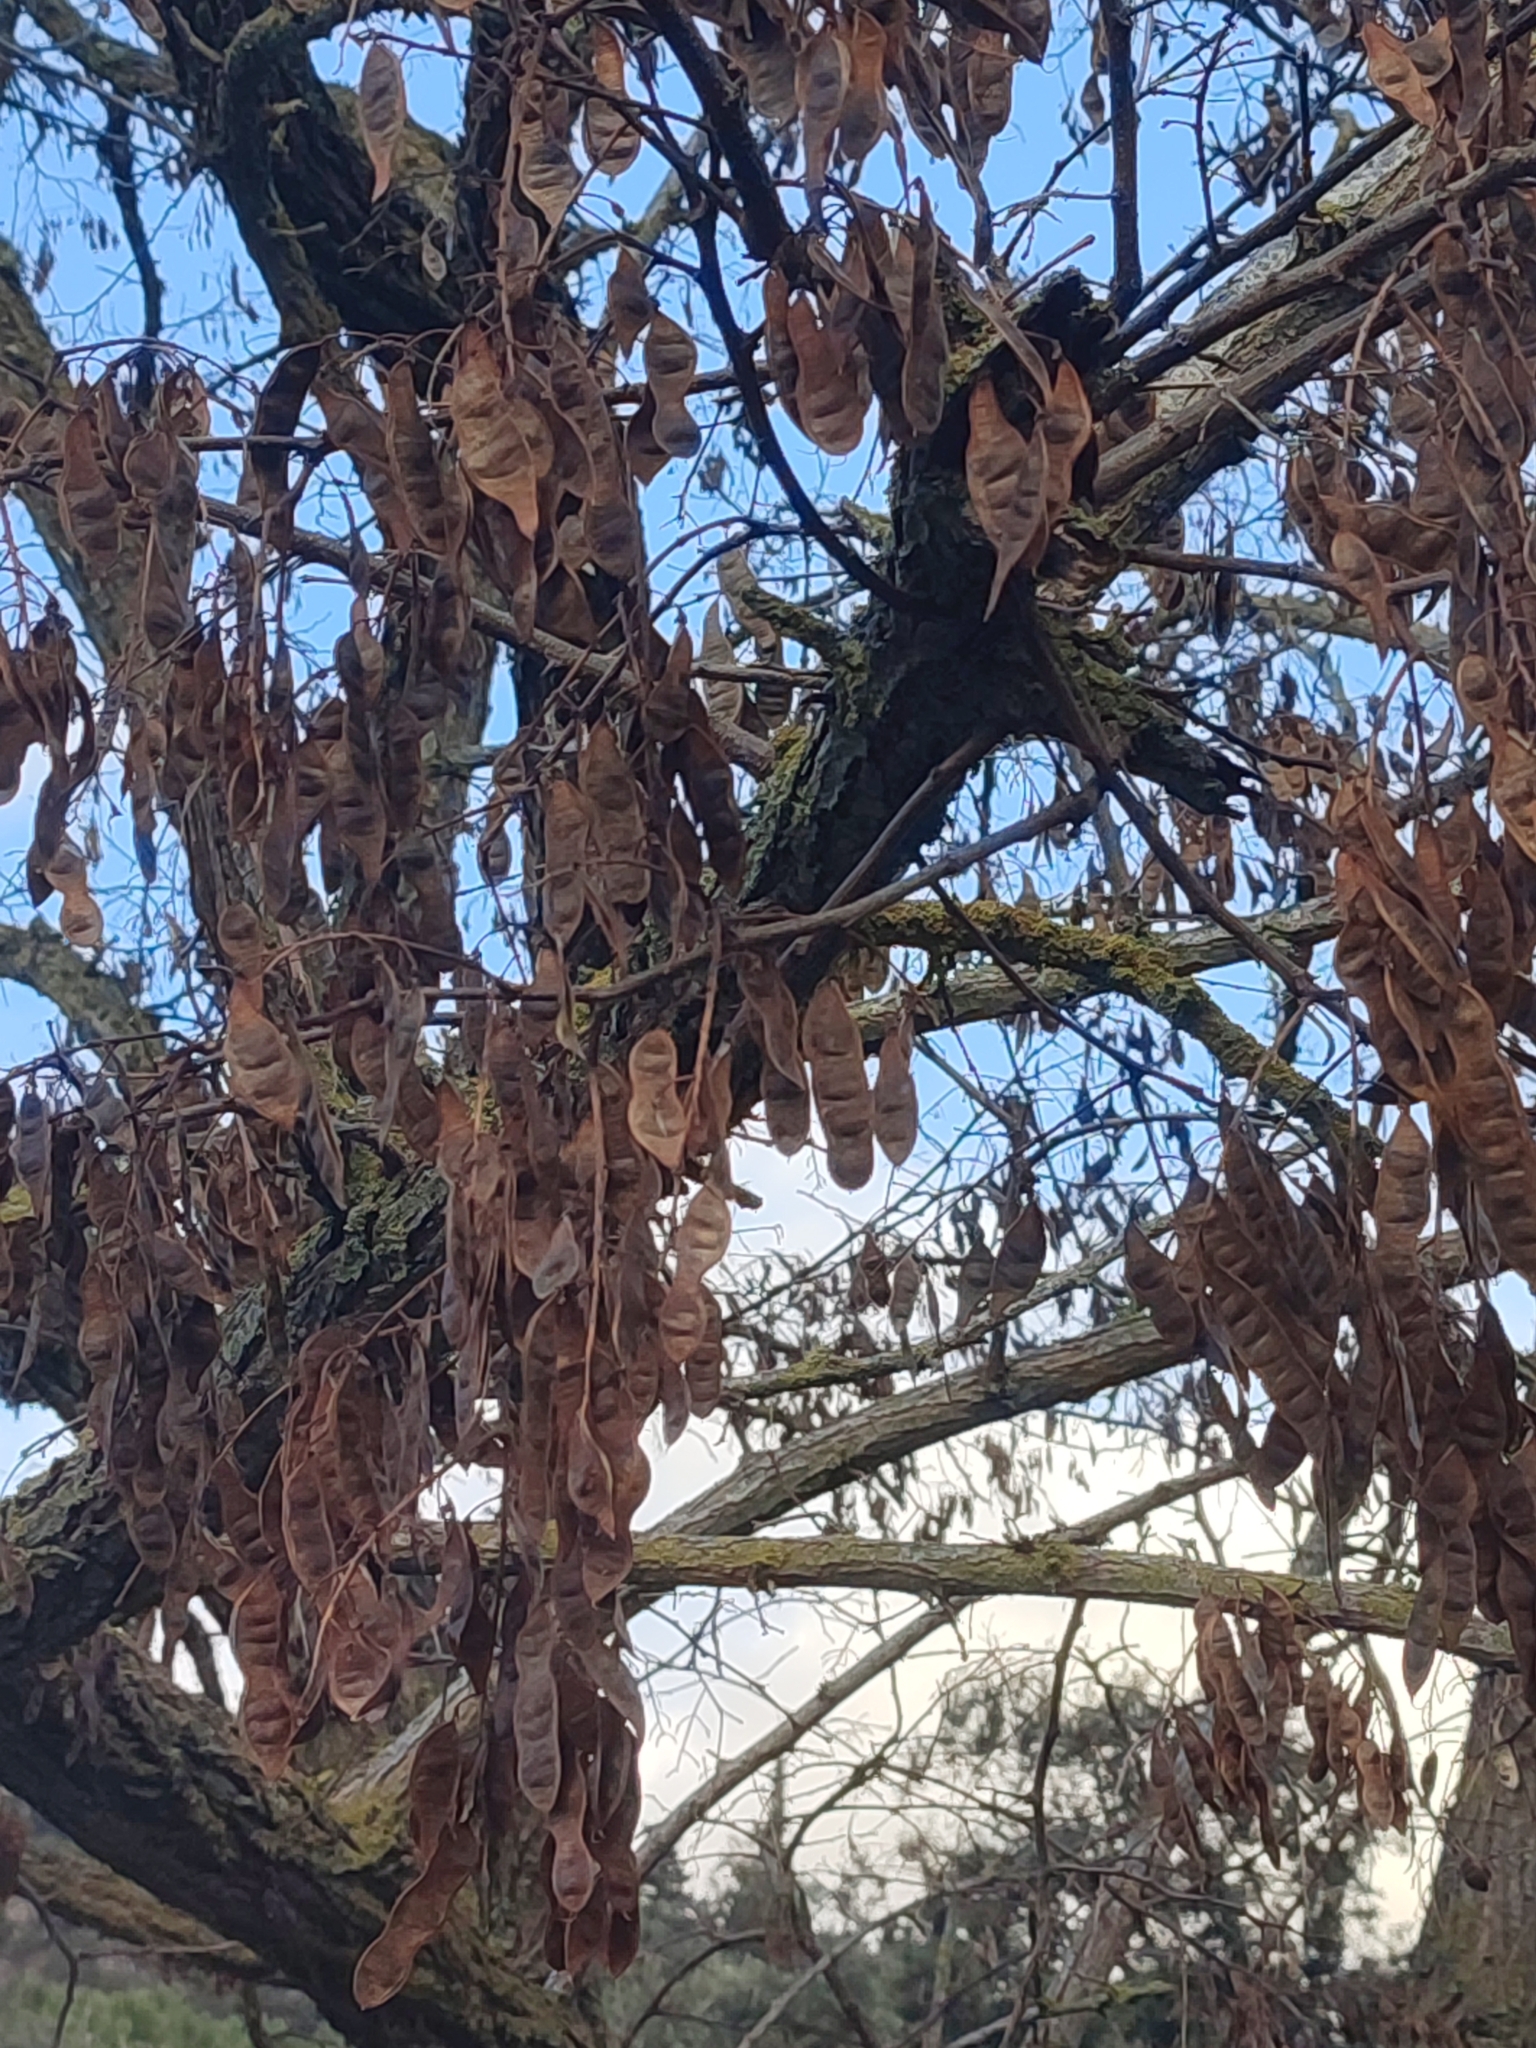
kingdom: Plantae
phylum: Tracheophyta
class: Magnoliopsida
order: Fabales
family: Fabaceae
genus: Robinia
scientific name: Robinia pseudoacacia
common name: Black locust
